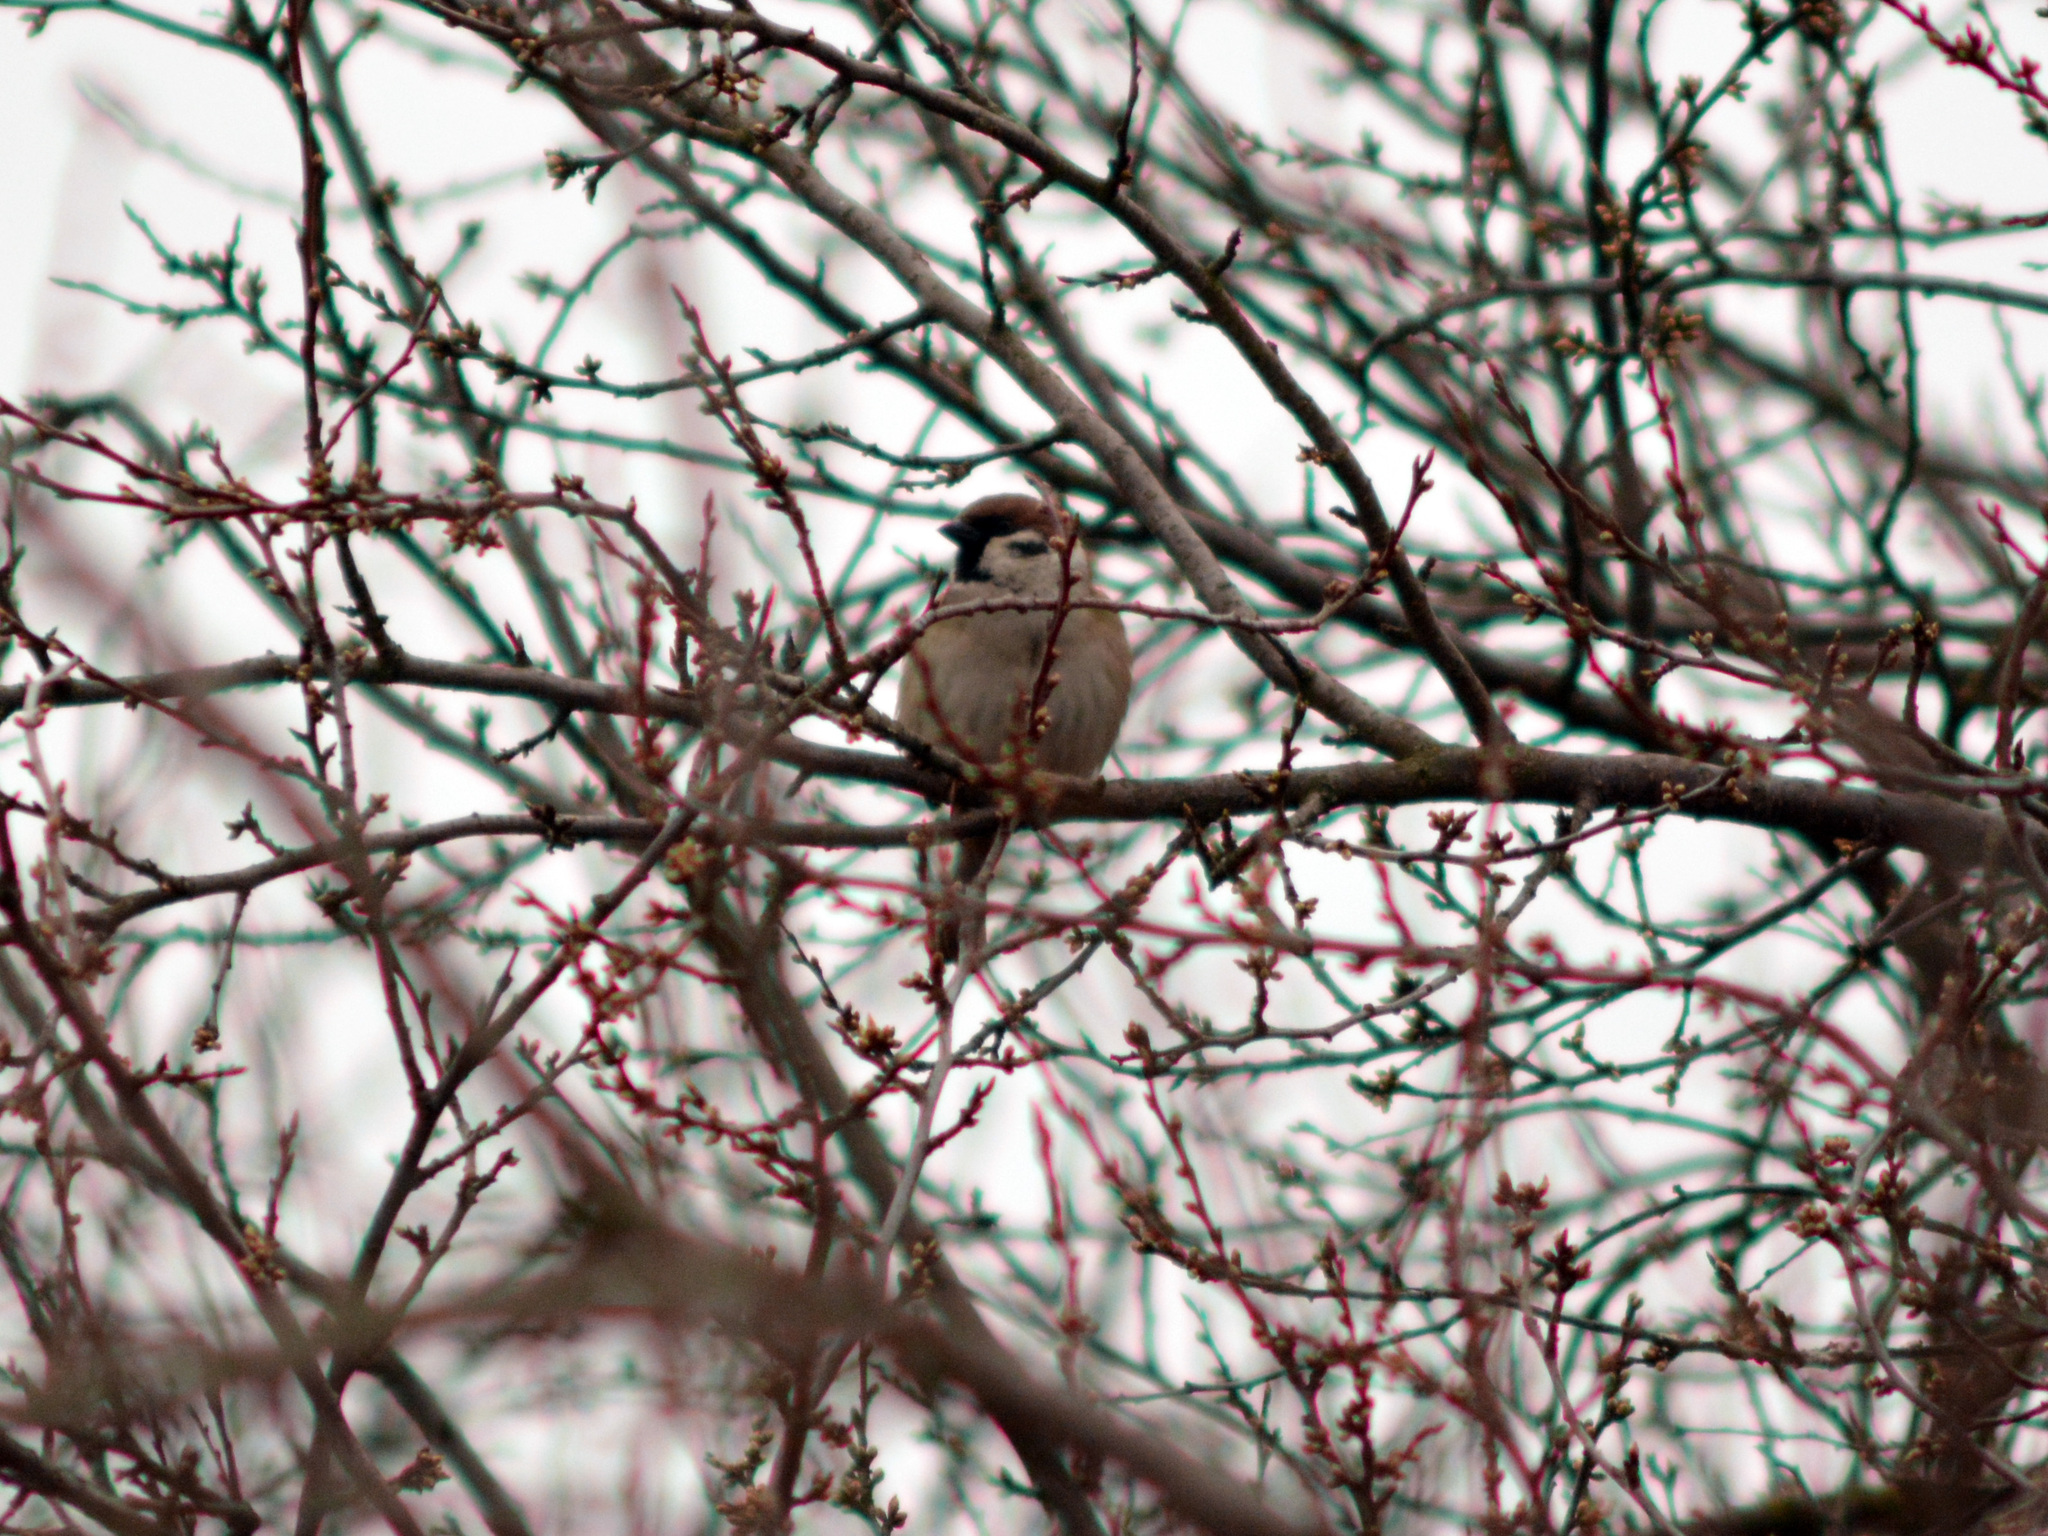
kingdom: Animalia
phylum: Chordata
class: Aves
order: Passeriformes
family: Passeridae
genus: Passer
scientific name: Passer montanus
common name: Eurasian tree sparrow
